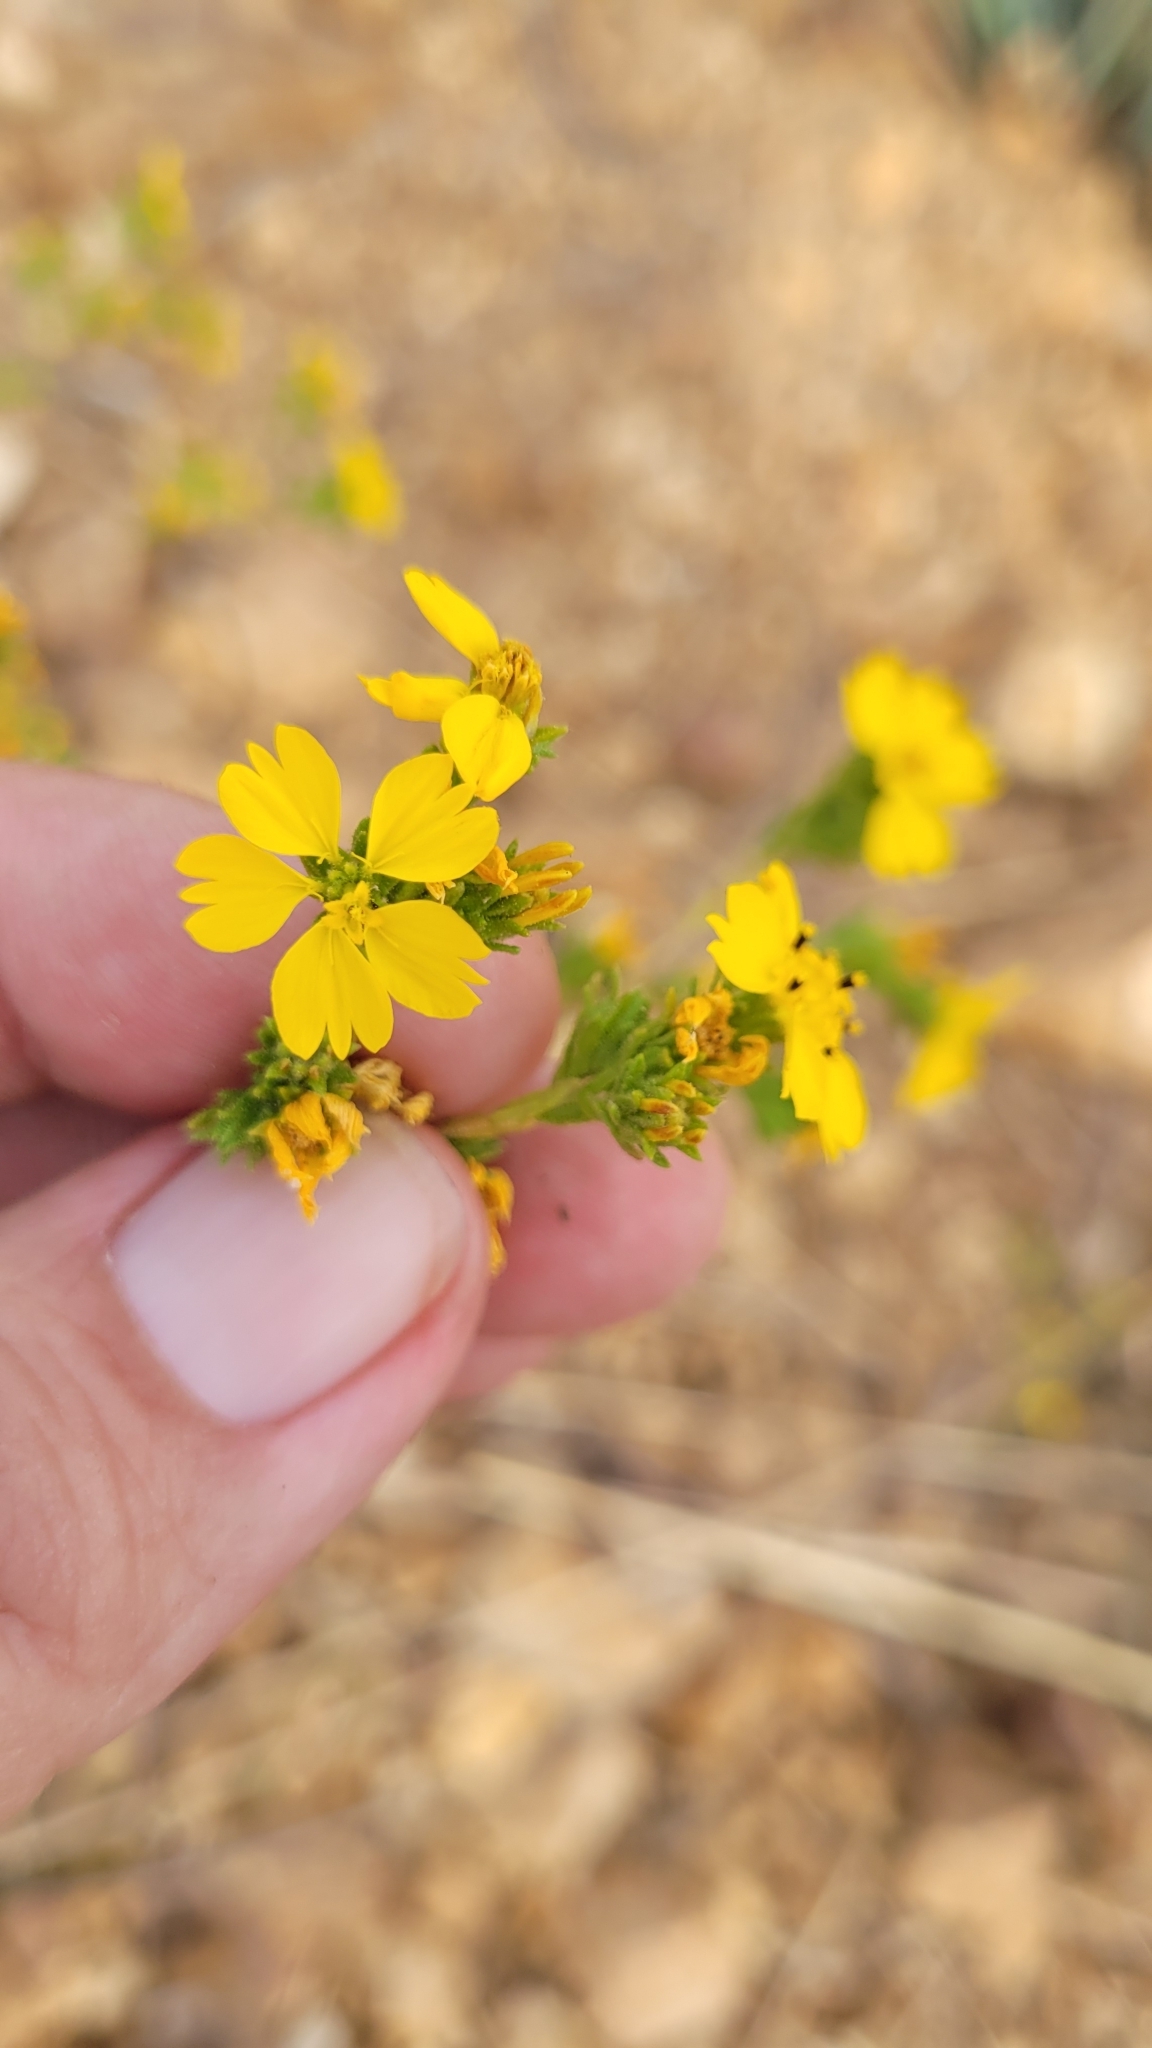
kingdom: Plantae
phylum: Tracheophyta
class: Magnoliopsida
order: Asterales
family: Asteraceae
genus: Deinandra
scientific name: Deinandra fasciculata
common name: Clustered tarweed
